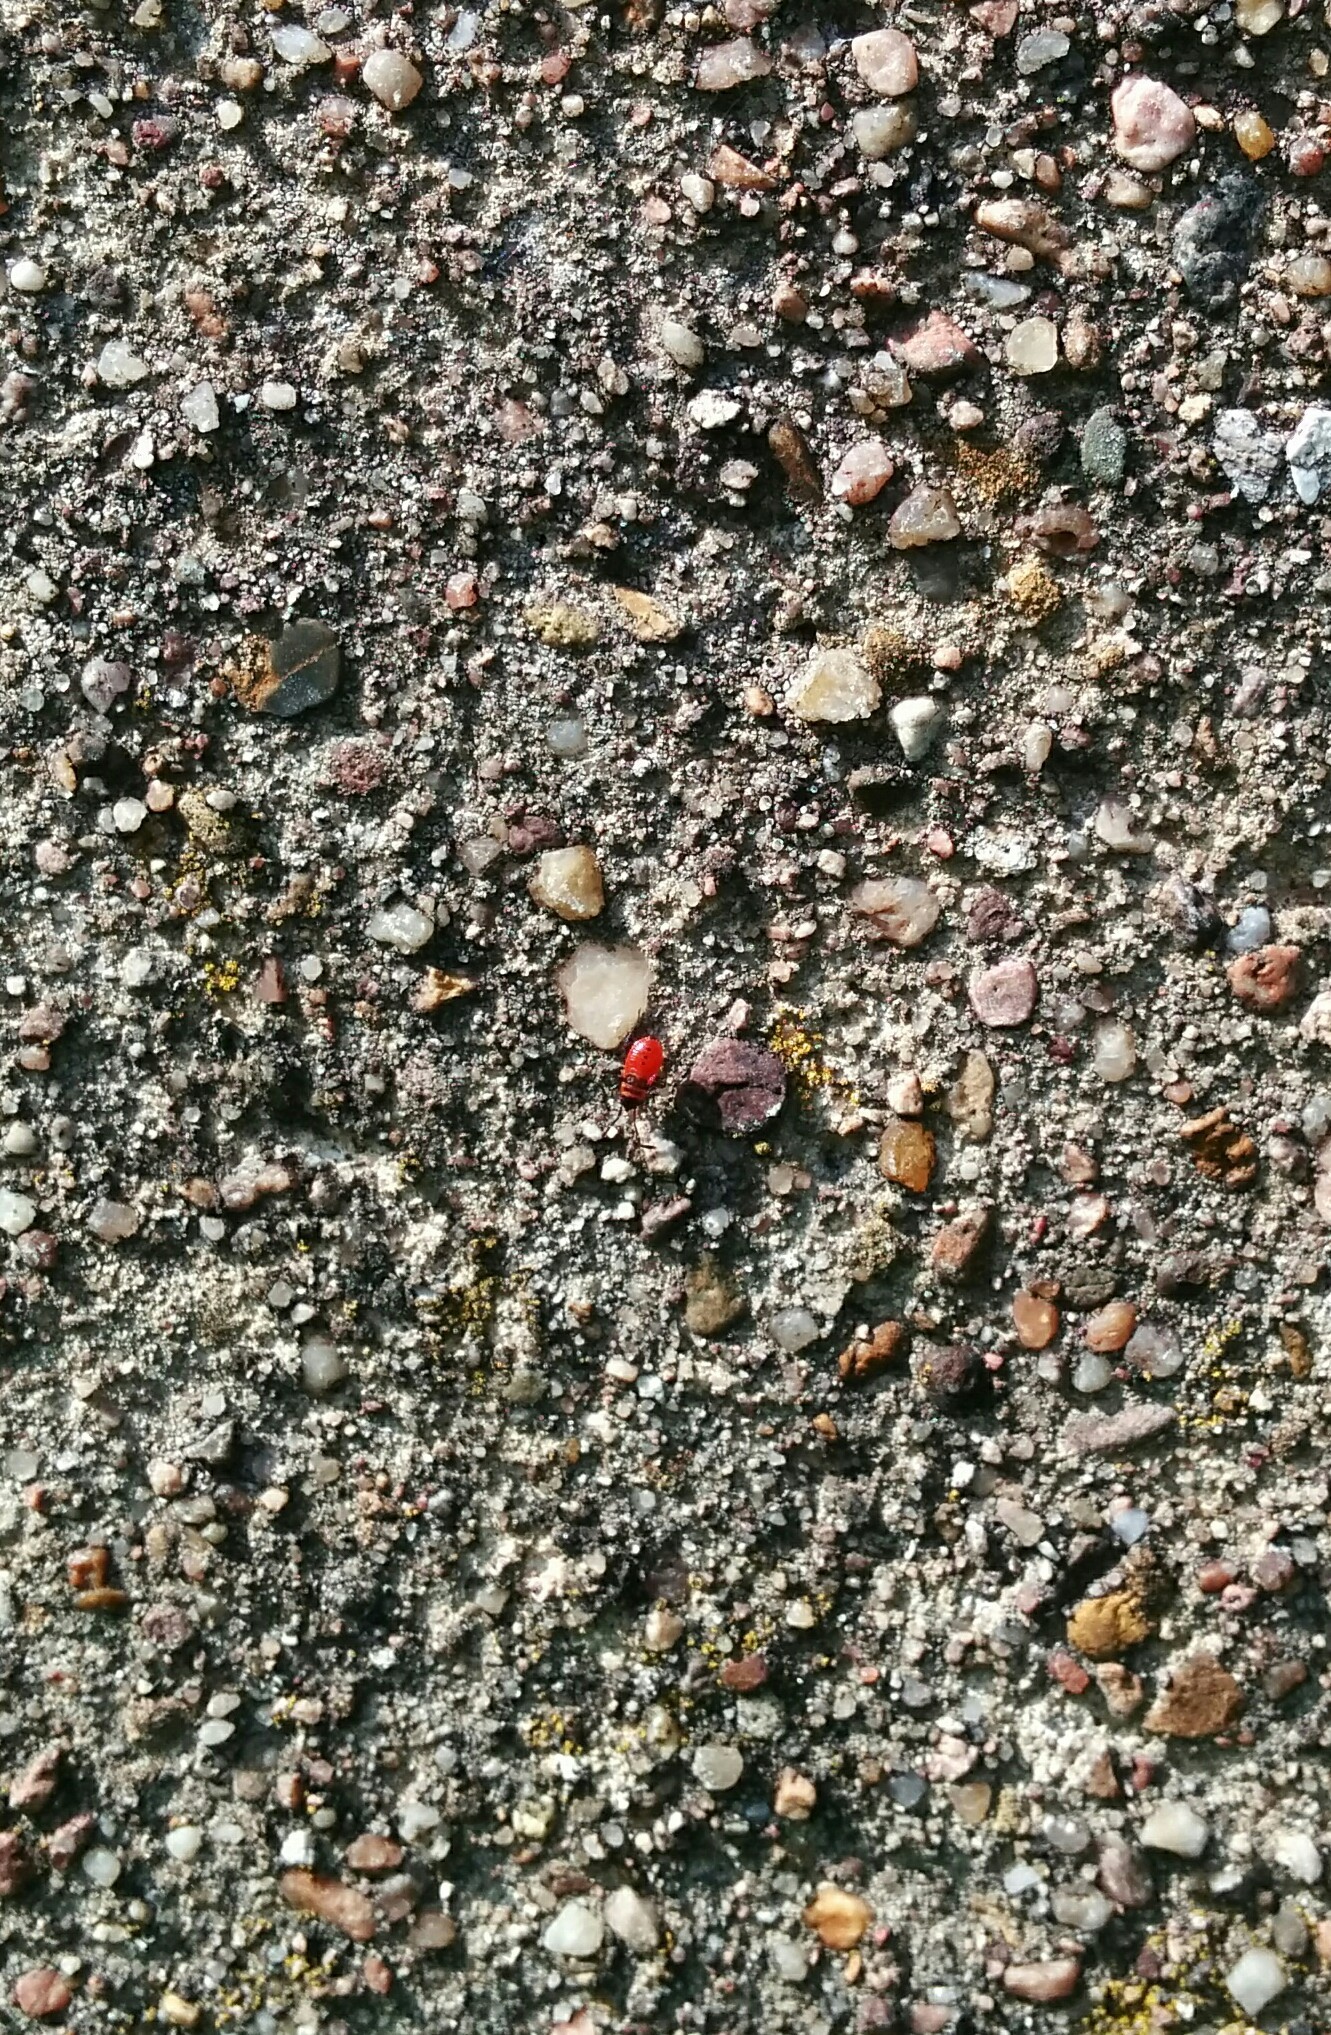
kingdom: Animalia
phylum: Arthropoda
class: Insecta
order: Hemiptera
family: Pyrrhocoridae
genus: Pyrrhocoris
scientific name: Pyrrhocoris apterus
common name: Firebug
